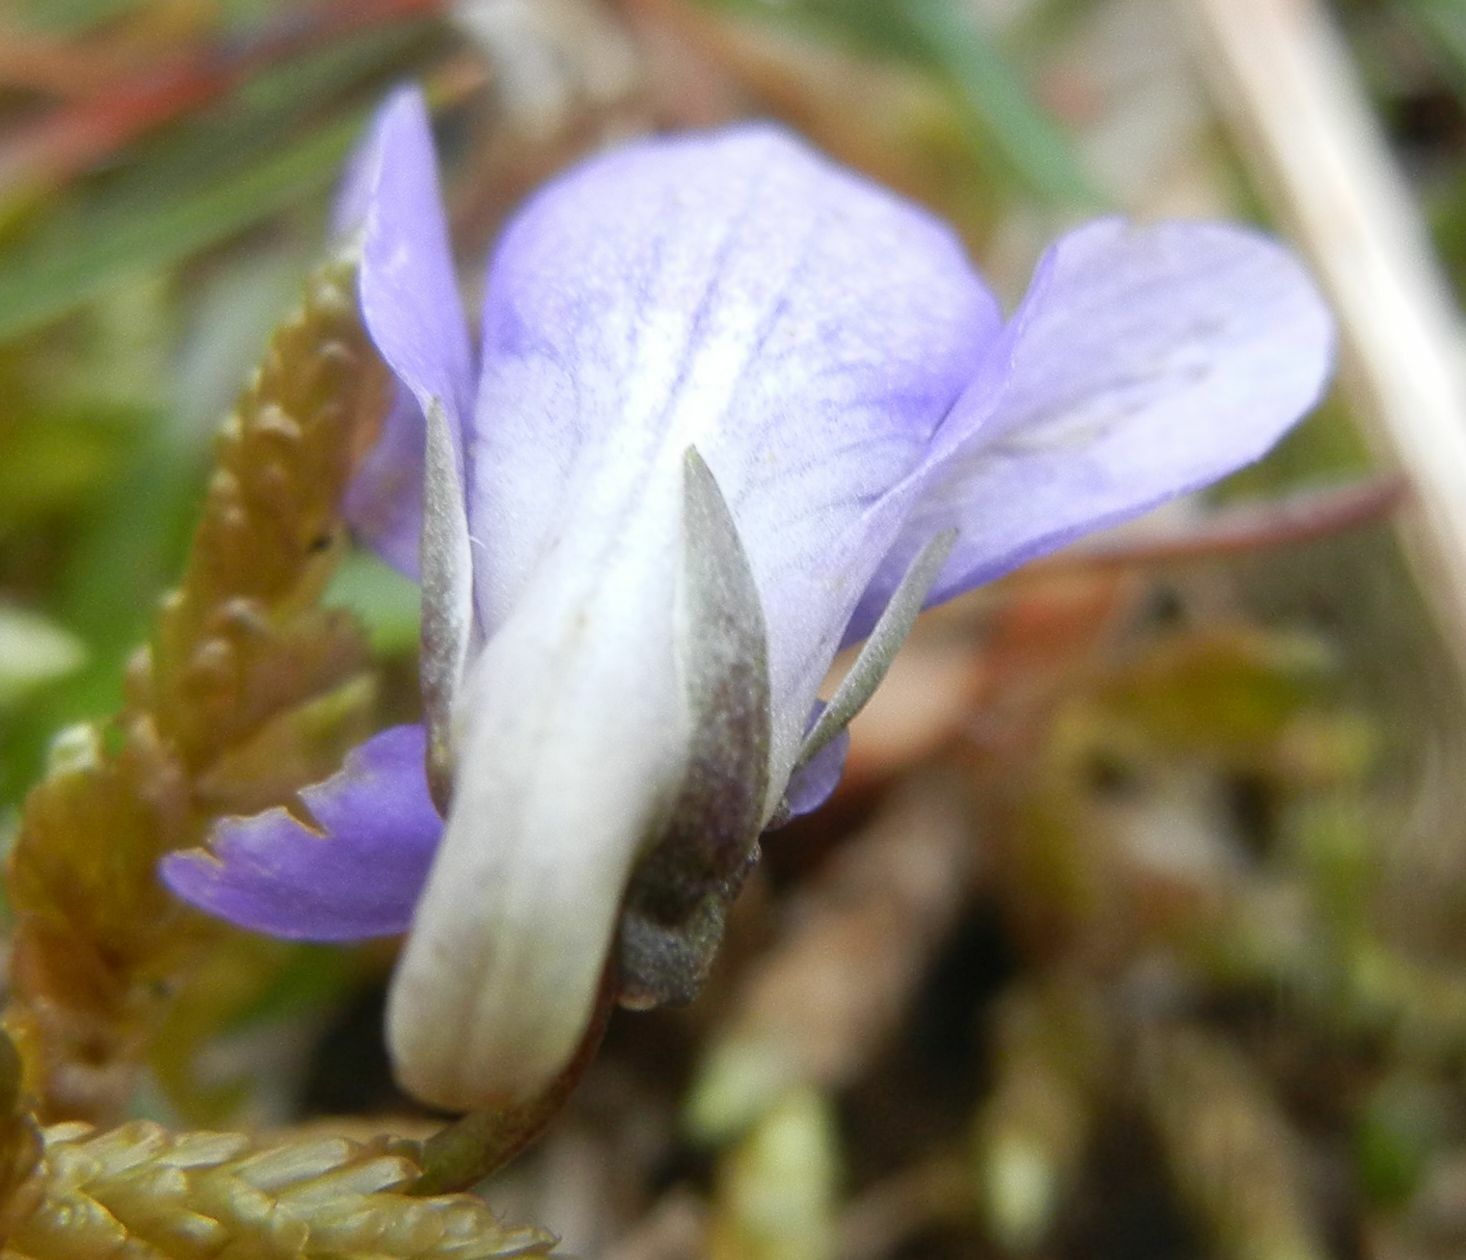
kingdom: Plantae
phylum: Tracheophyta
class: Magnoliopsida
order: Malpighiales
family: Violaceae
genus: Viola
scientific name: Viola riviniana
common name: Common dog-violet
